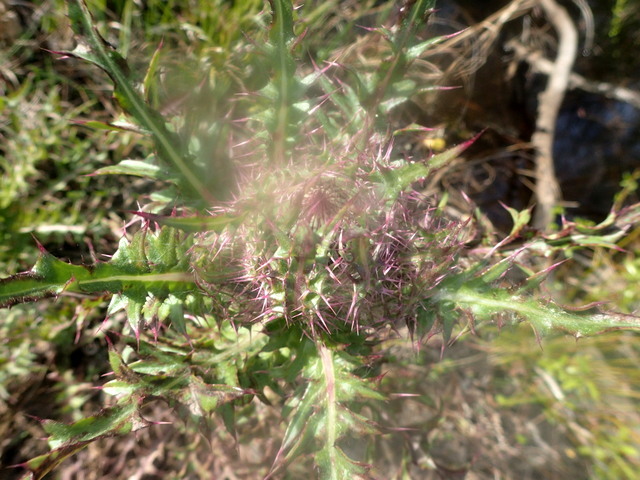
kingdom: Plantae
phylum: Tracheophyta
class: Magnoliopsida
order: Asterales
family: Asteraceae
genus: Cirsium
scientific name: Cirsium horridulum
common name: Bristly thistle
